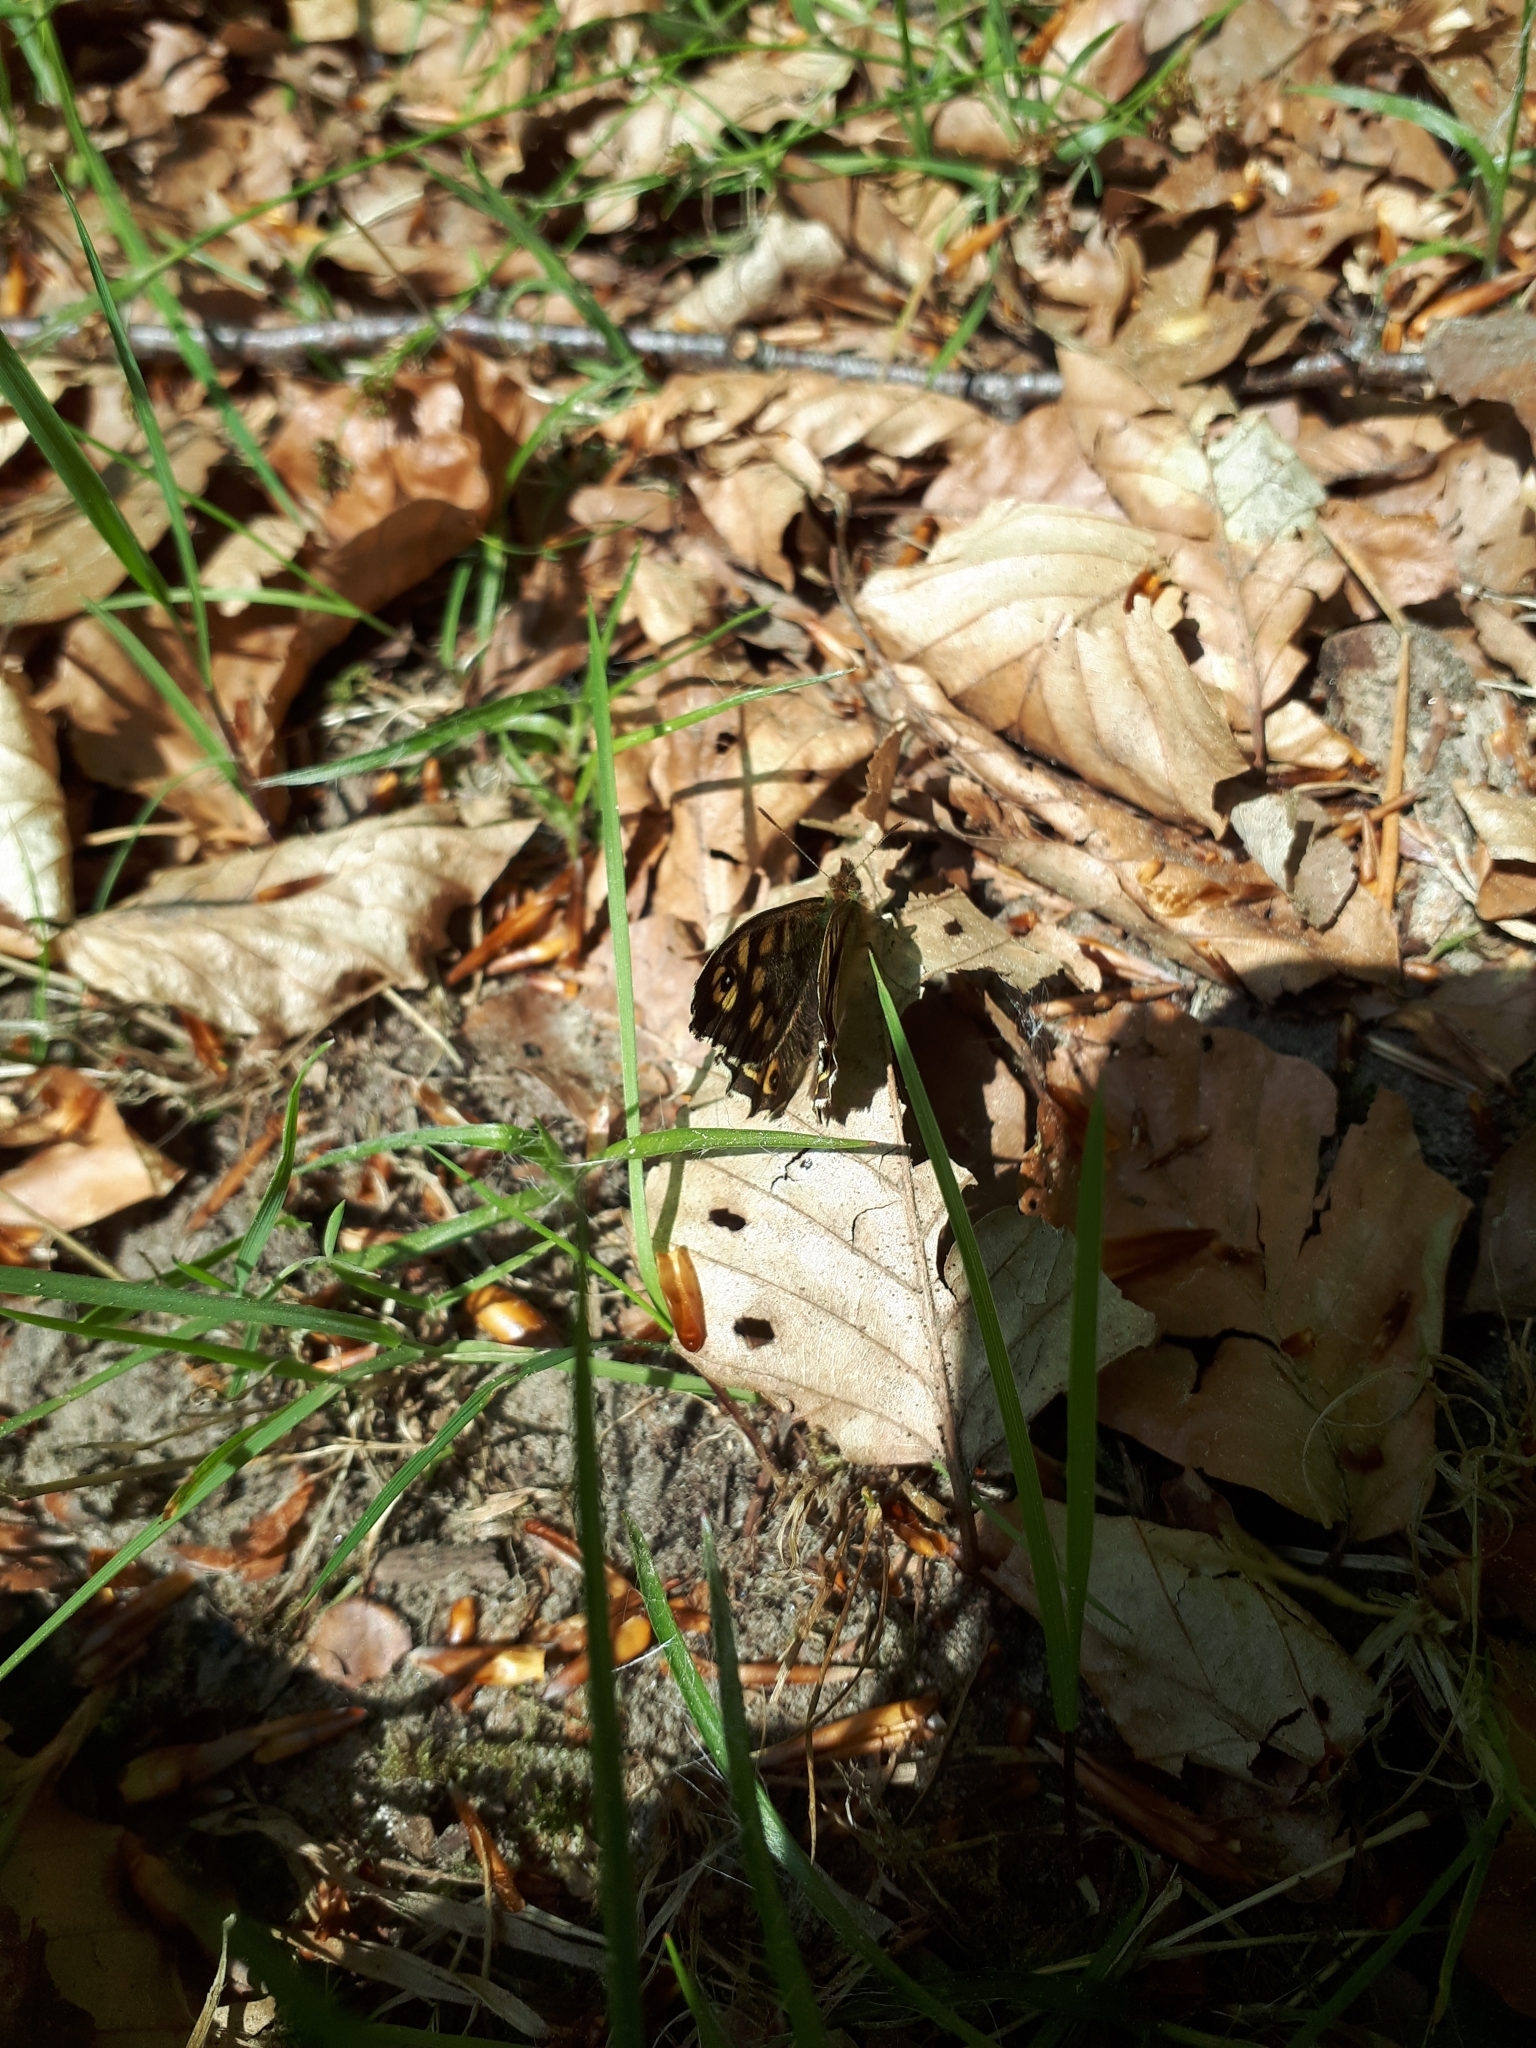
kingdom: Animalia
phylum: Arthropoda
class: Insecta
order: Lepidoptera
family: Nymphalidae
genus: Pararge
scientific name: Pararge aegeria
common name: Speckled wood
